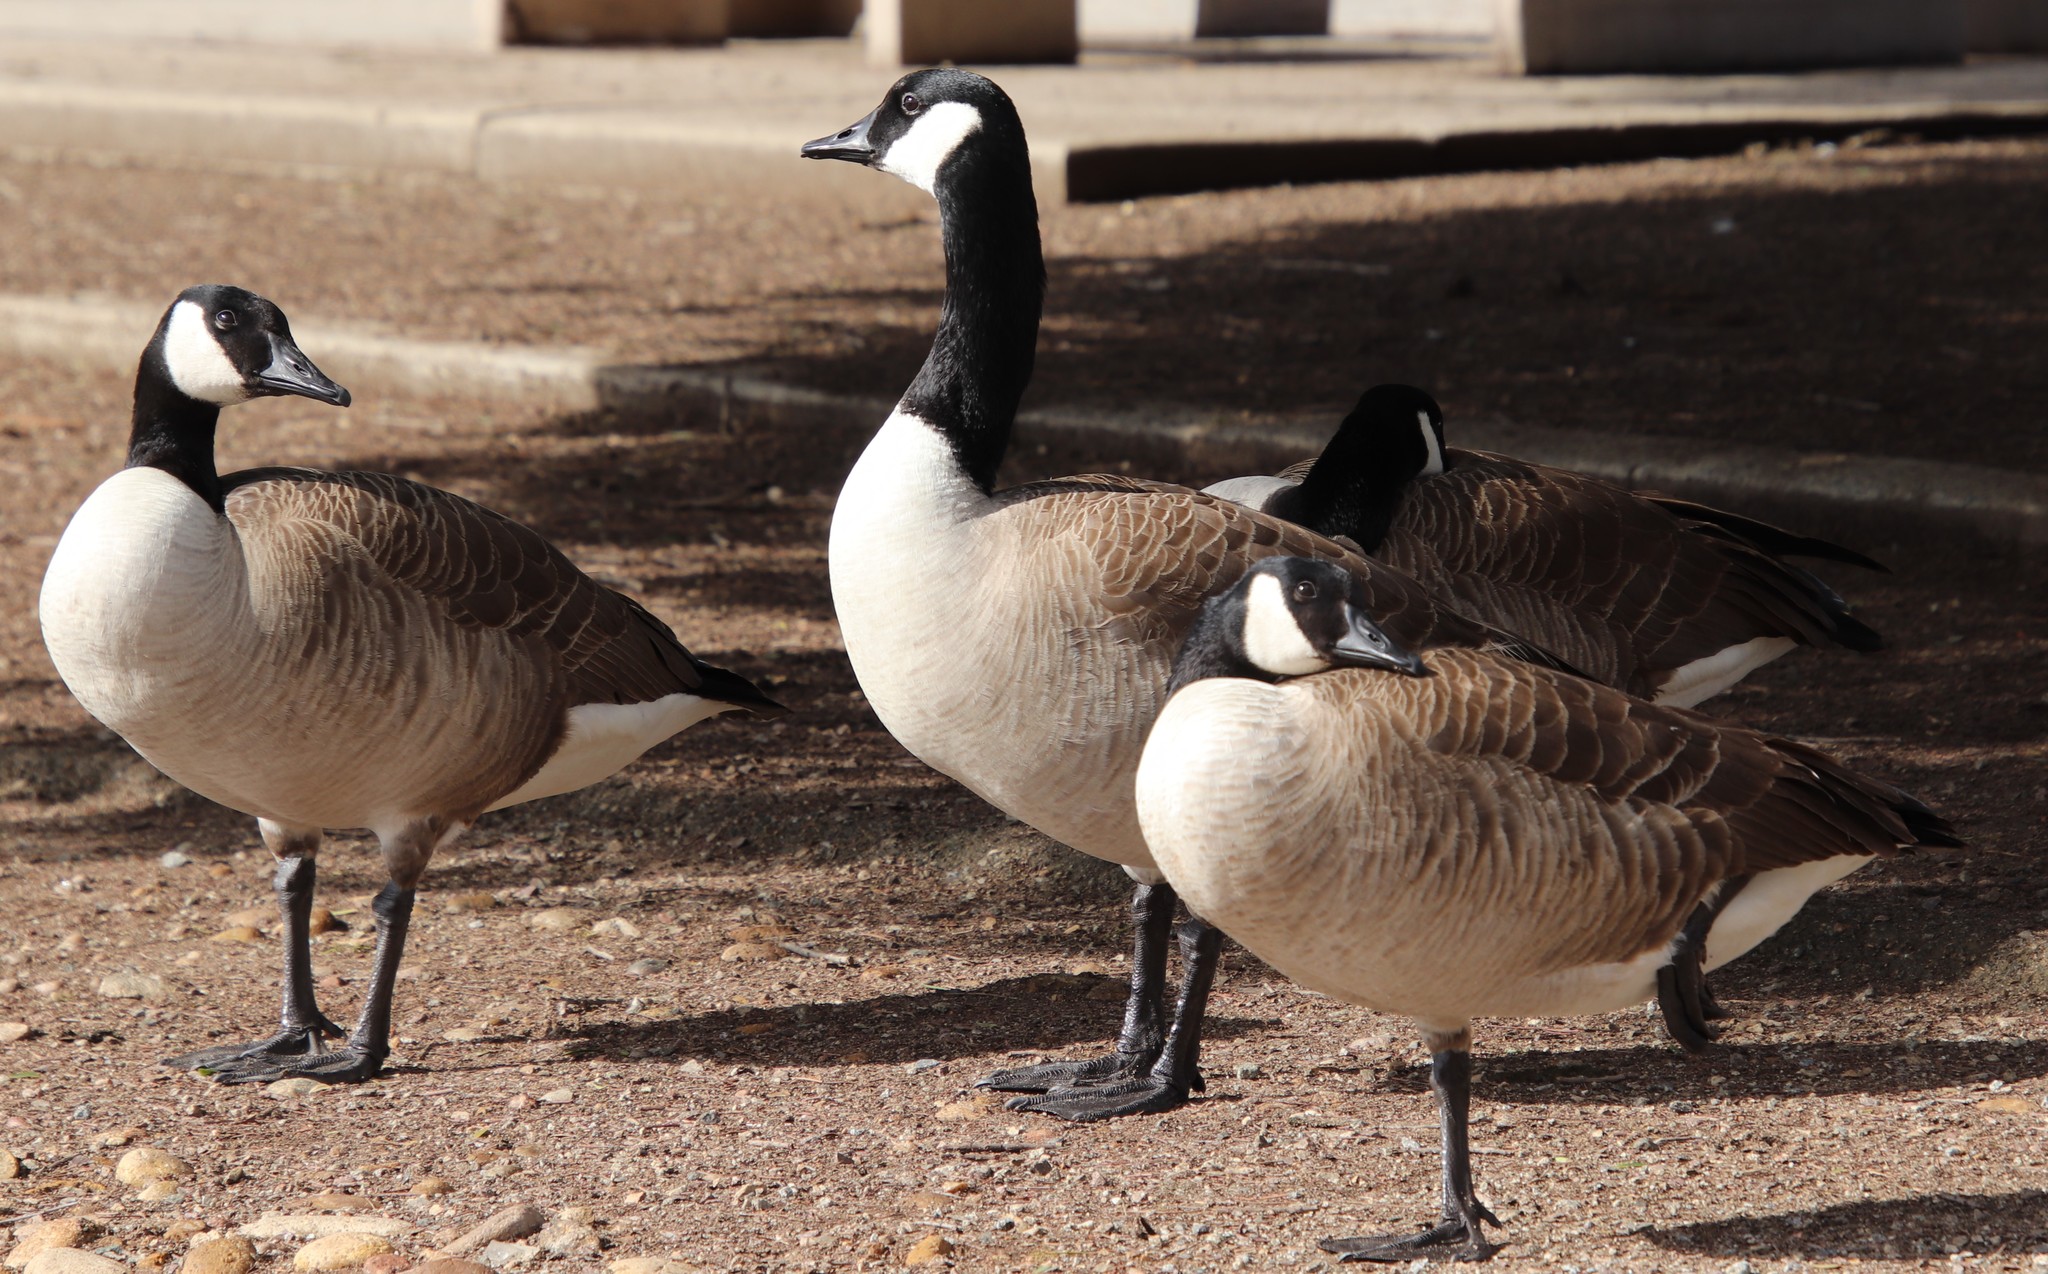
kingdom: Animalia
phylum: Chordata
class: Aves
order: Anseriformes
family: Anatidae
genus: Branta
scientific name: Branta canadensis
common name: Canada goose
